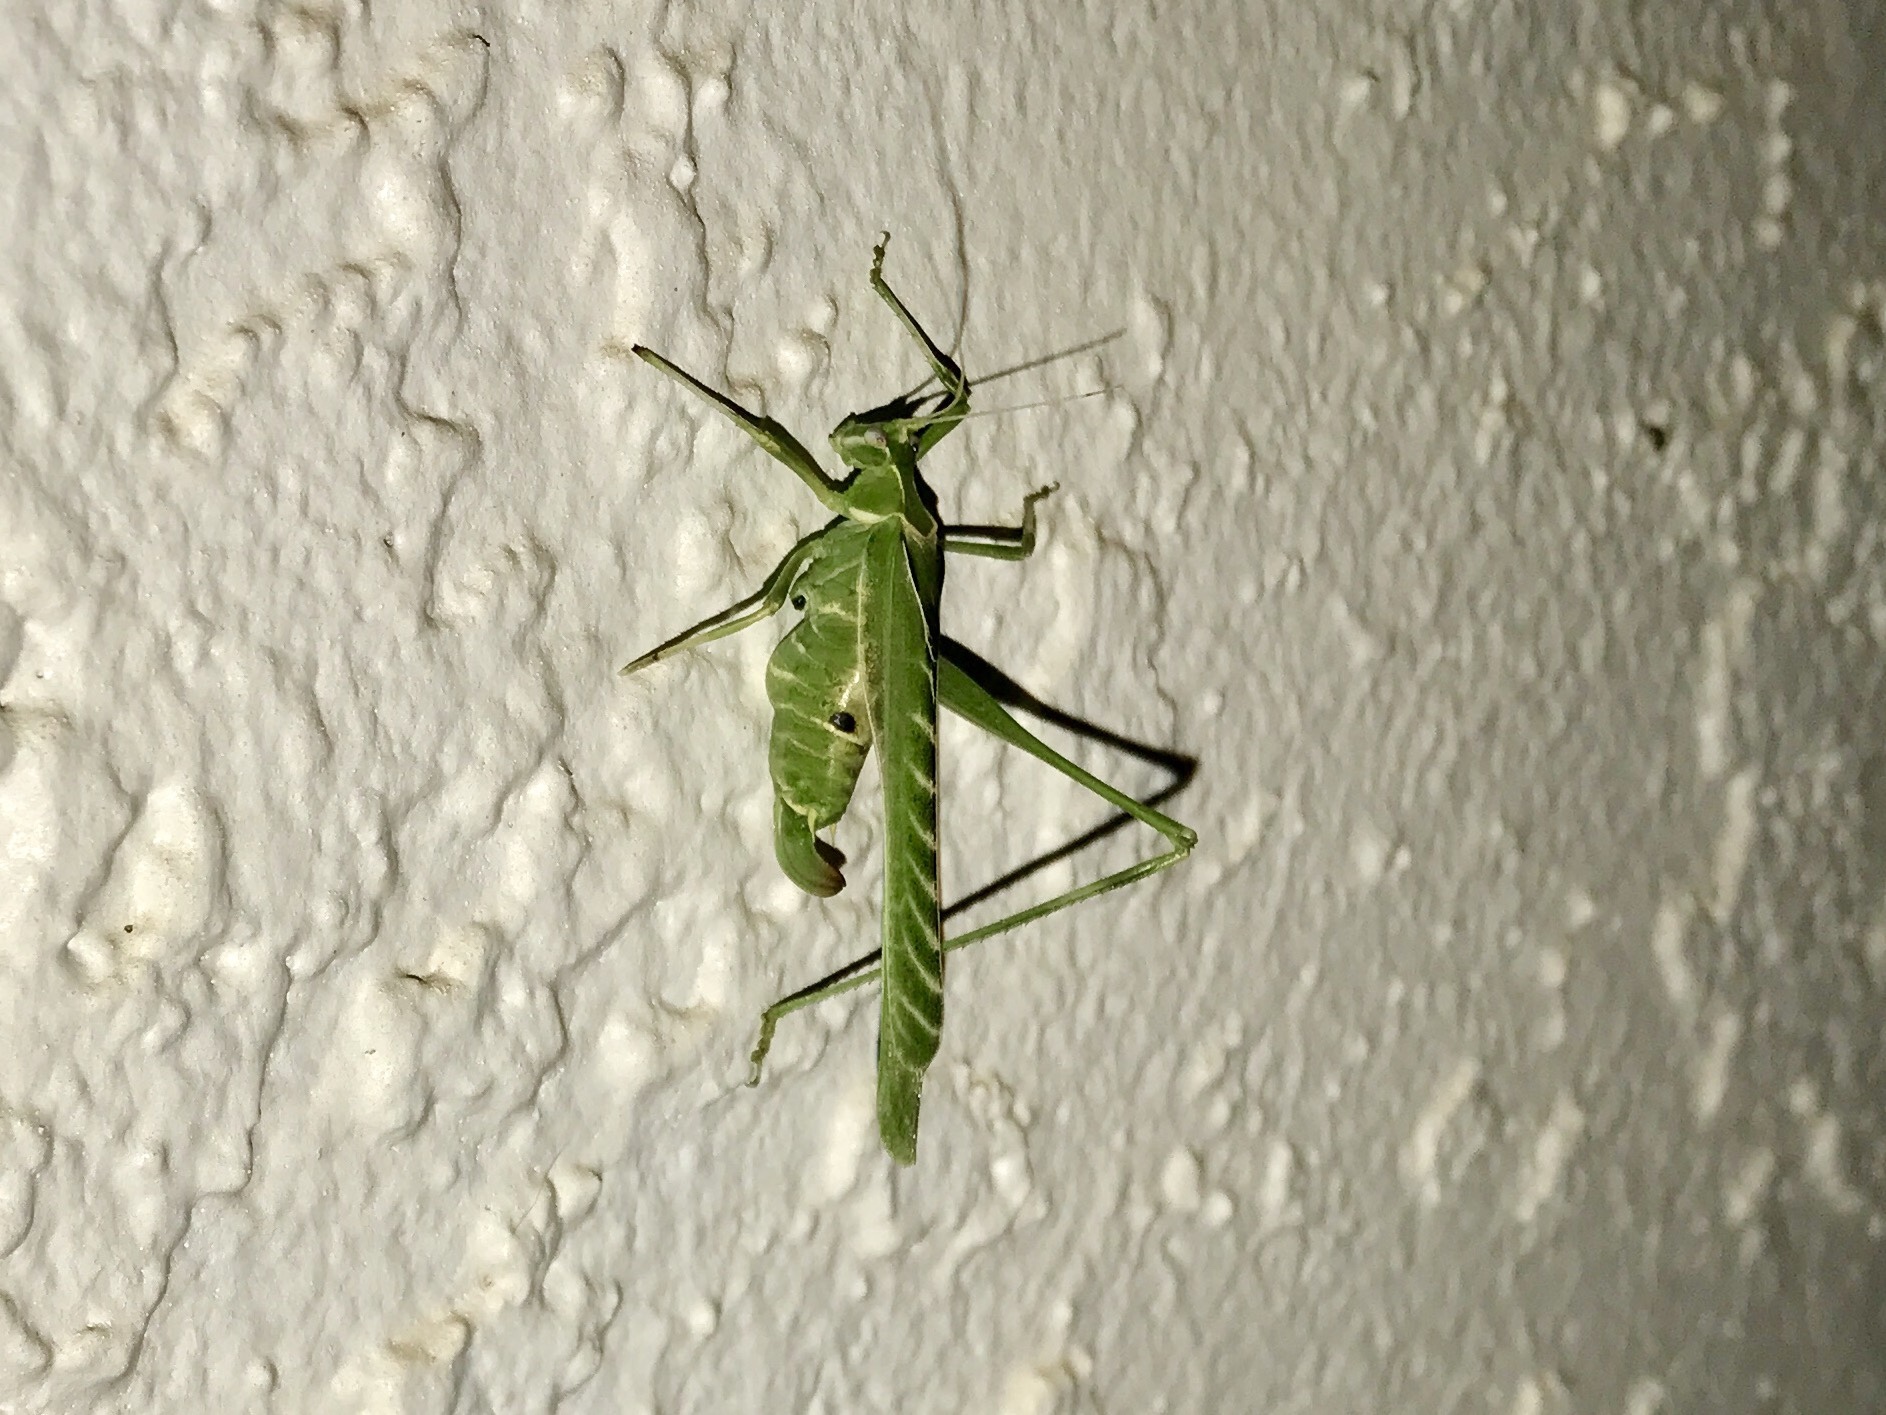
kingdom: Animalia
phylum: Arthropoda
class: Insecta
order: Orthoptera
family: Tettigoniidae
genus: Insara
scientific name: Insara elegans
